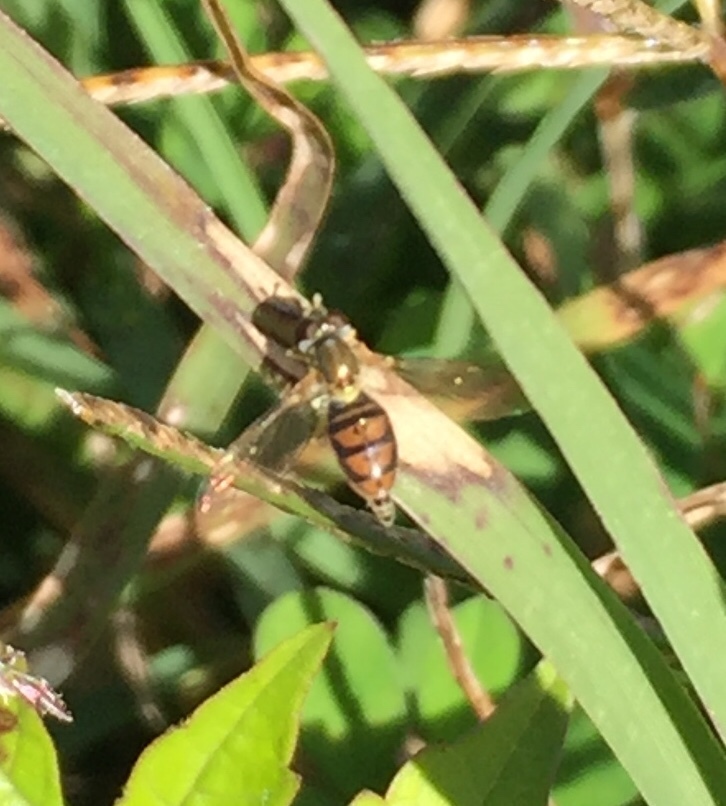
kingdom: Animalia
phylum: Arthropoda
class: Insecta
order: Diptera
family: Syrphidae
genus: Toxomerus
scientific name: Toxomerus marginatus
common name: Syrphid fly
